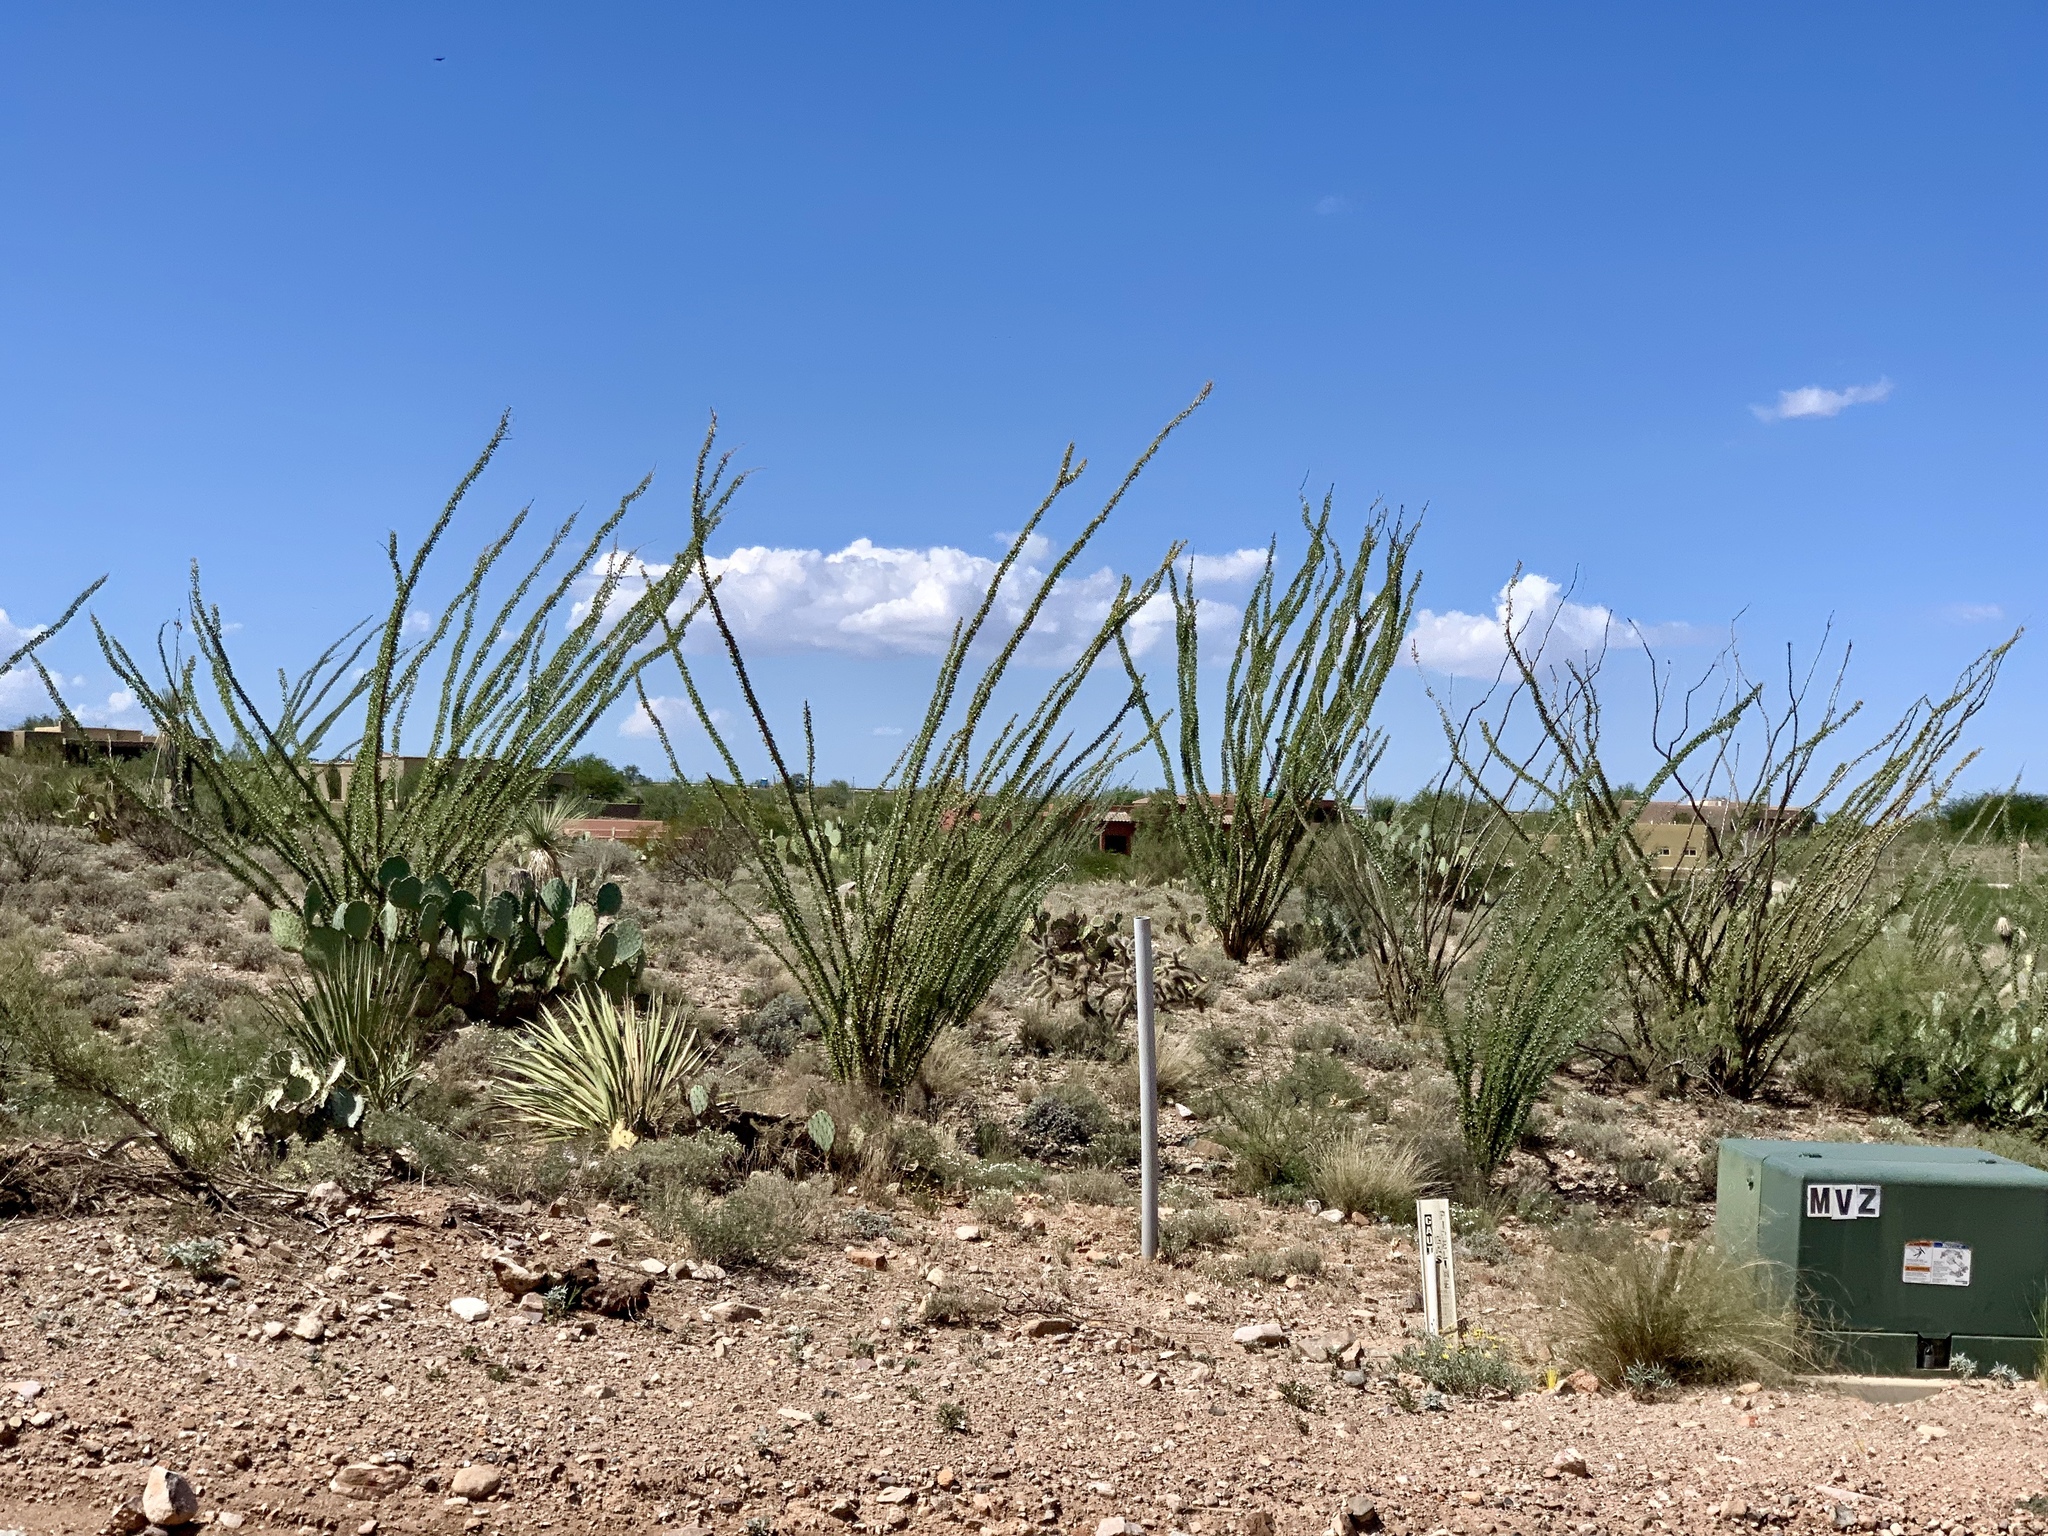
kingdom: Plantae
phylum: Tracheophyta
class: Magnoliopsida
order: Ericales
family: Fouquieriaceae
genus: Fouquieria
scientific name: Fouquieria splendens
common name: Vine-cactus
